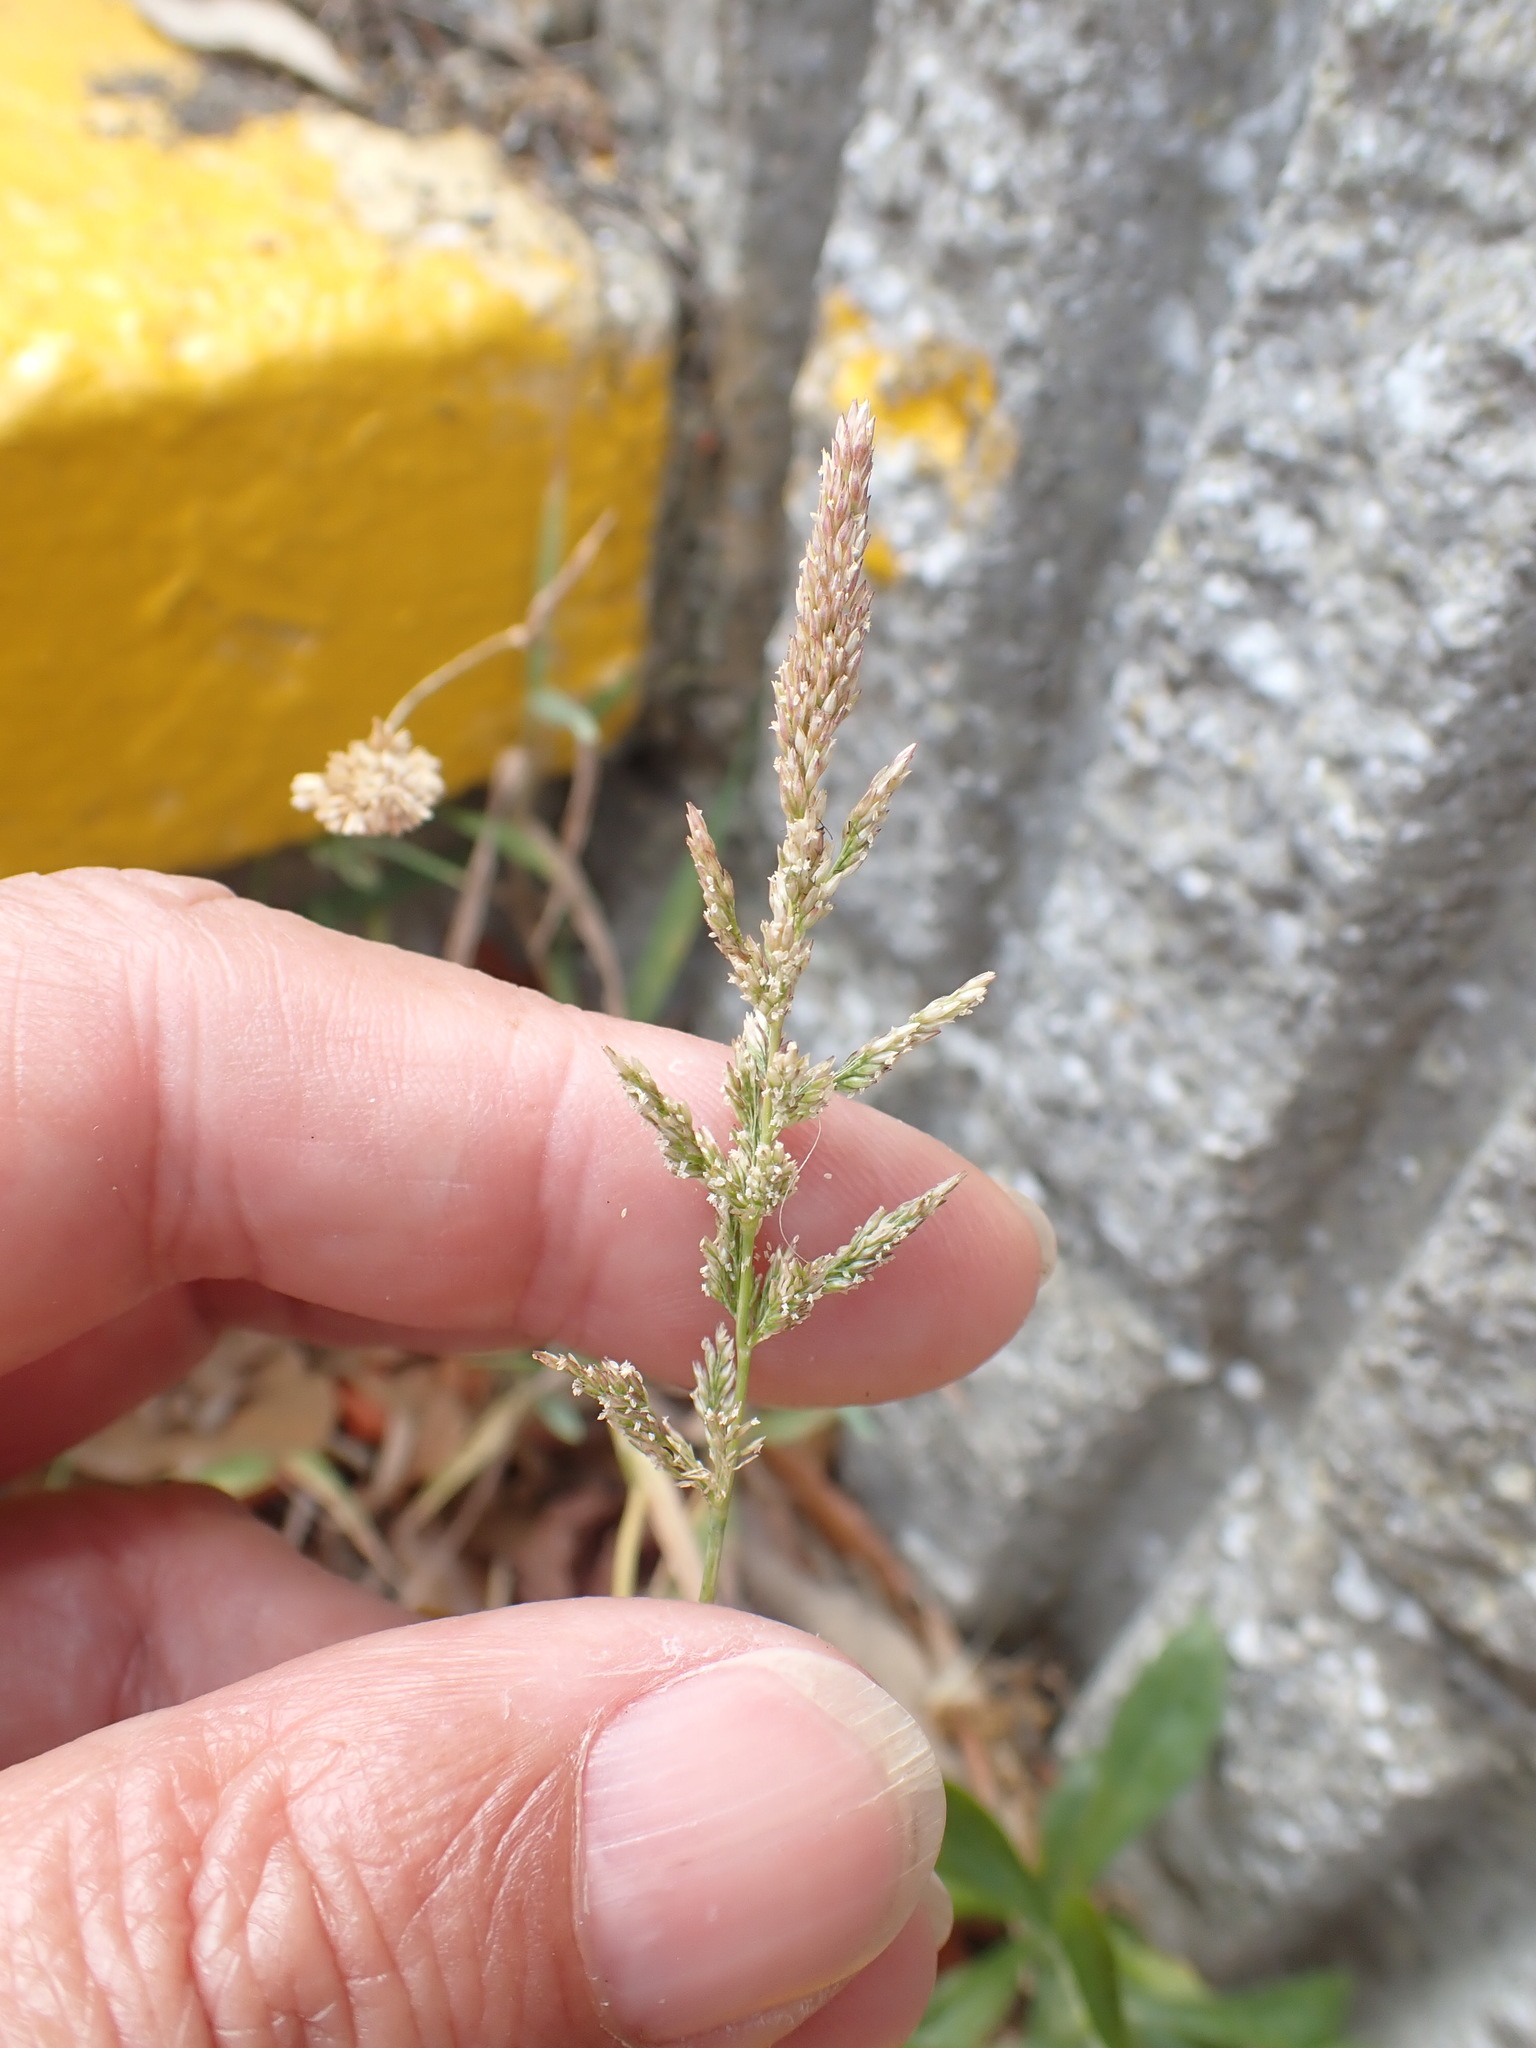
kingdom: Plantae
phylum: Tracheophyta
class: Liliopsida
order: Poales
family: Poaceae
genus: Polypogon
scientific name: Polypogon viridis
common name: Water bent
